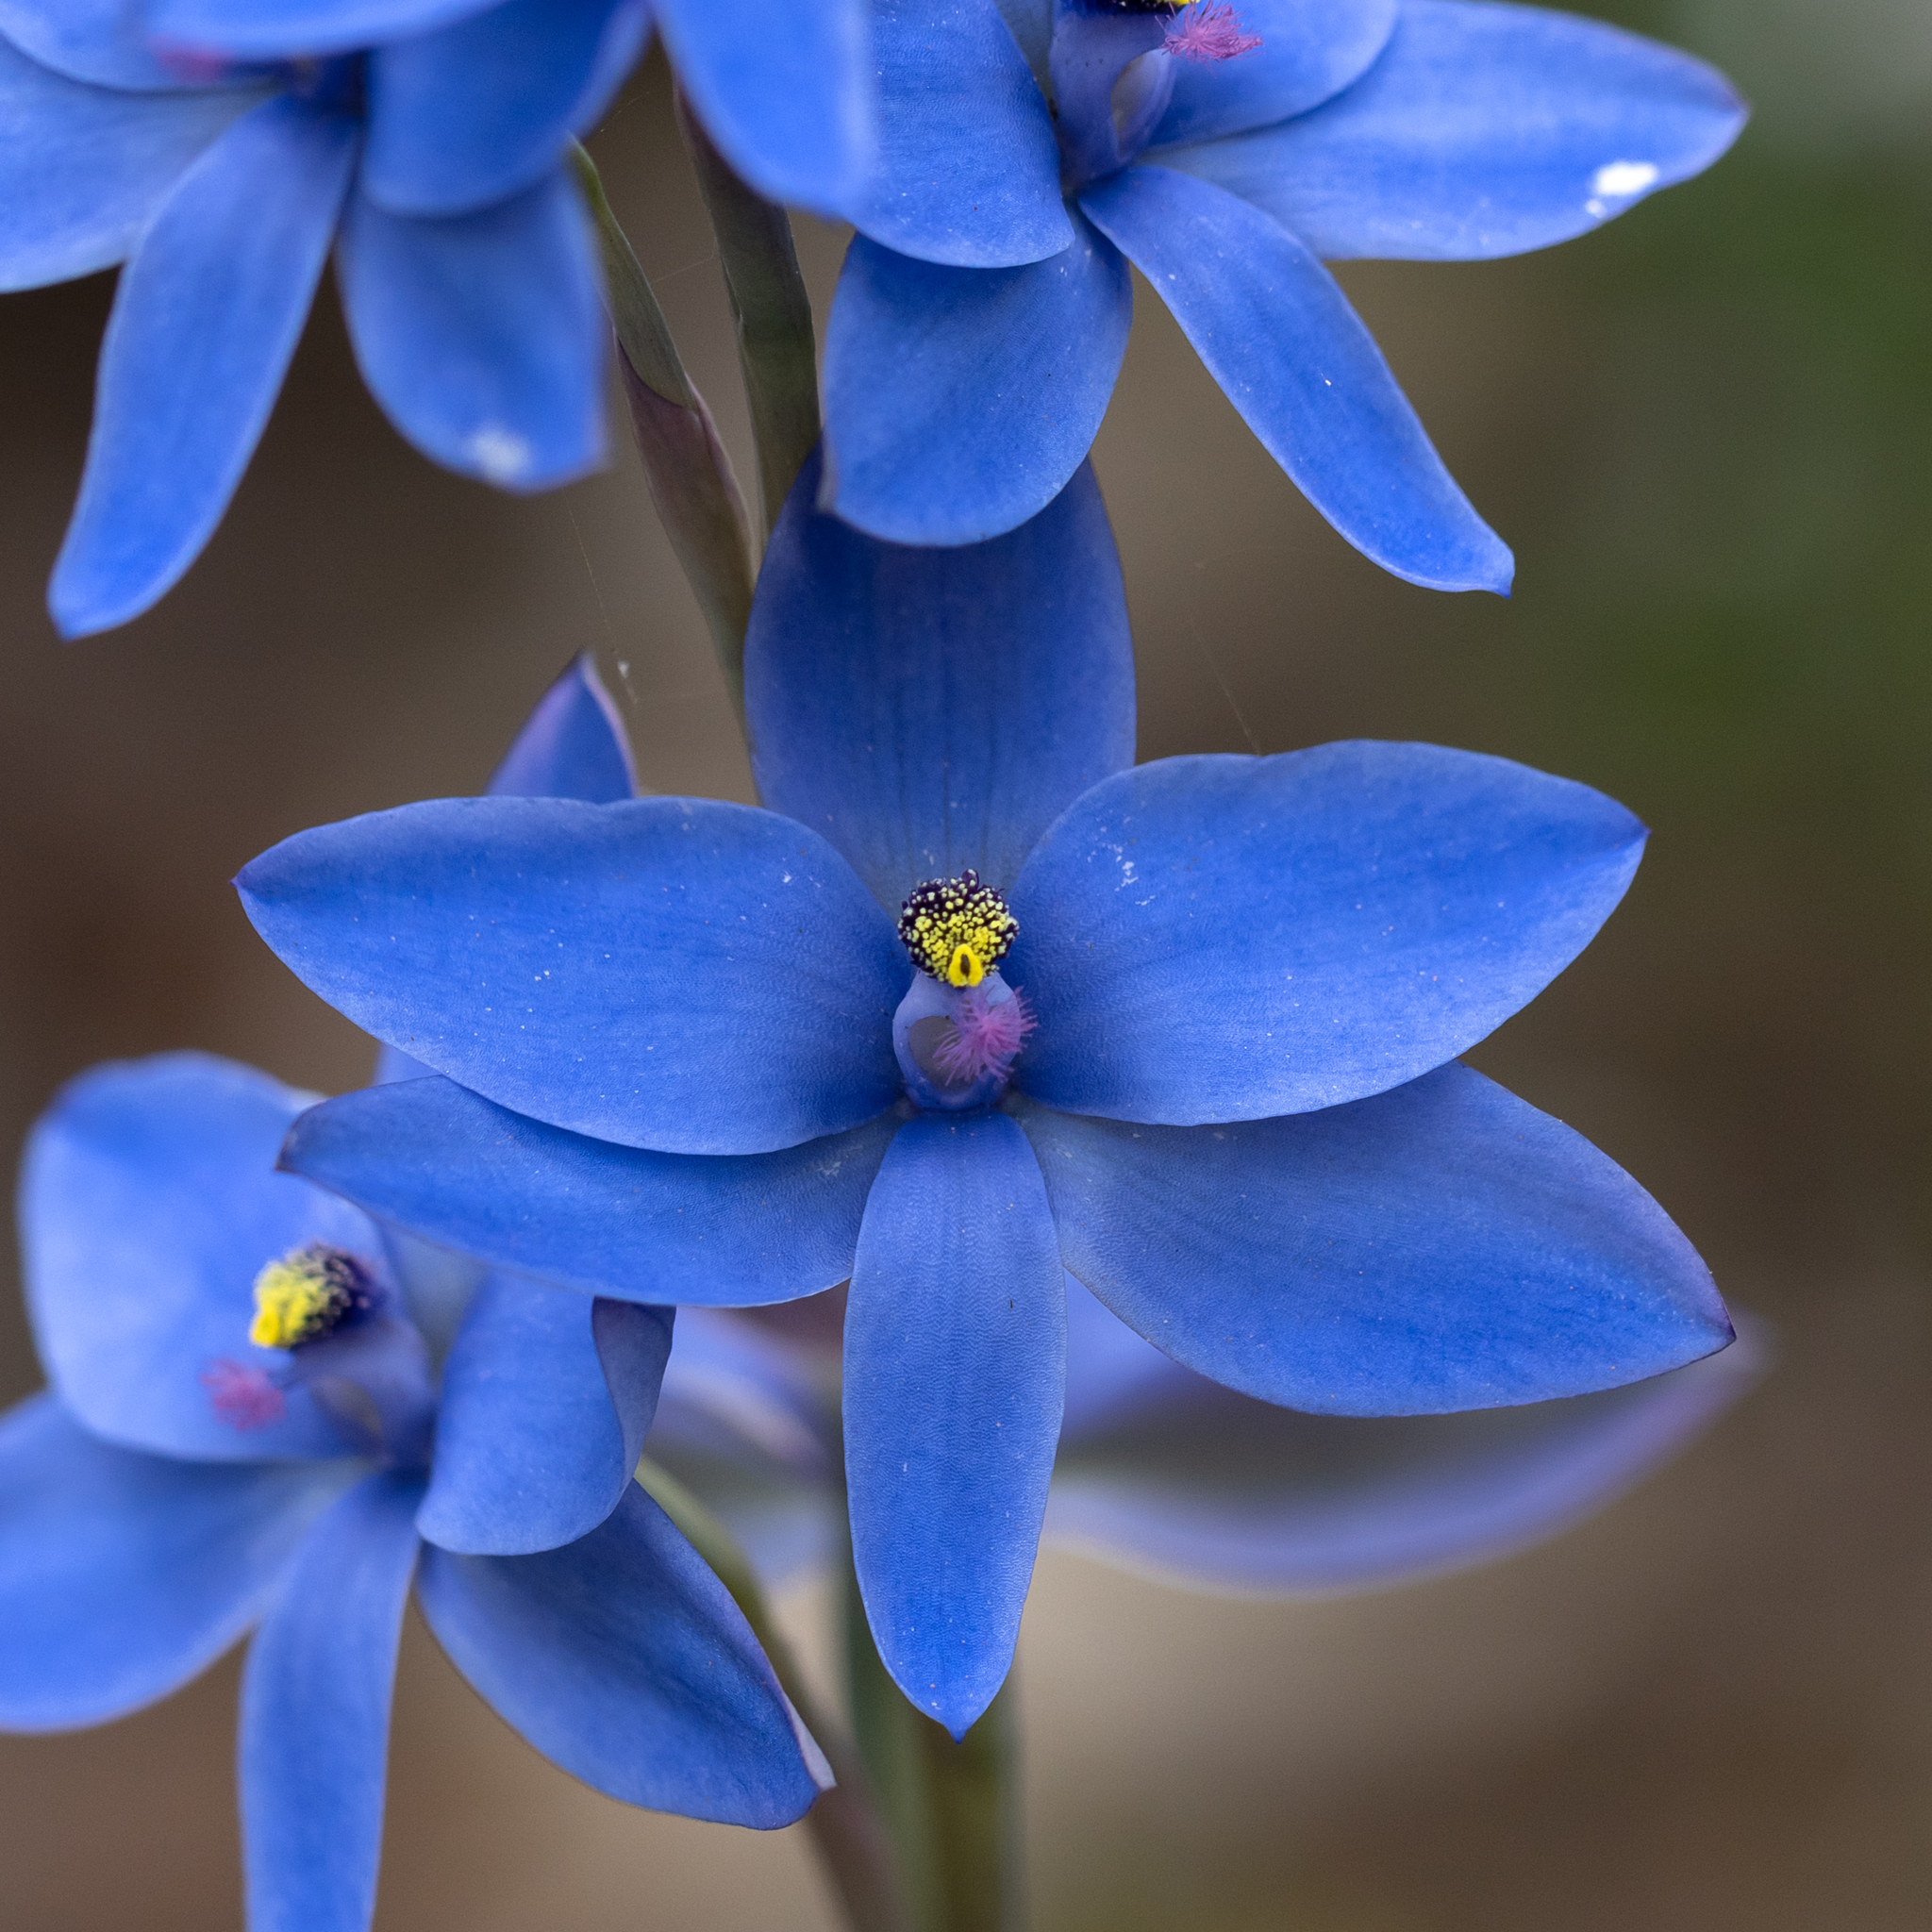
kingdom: Plantae
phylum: Tracheophyta
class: Liliopsida
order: Asparagales
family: Orchidaceae
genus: Thelymitra
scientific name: Thelymitra crinita
